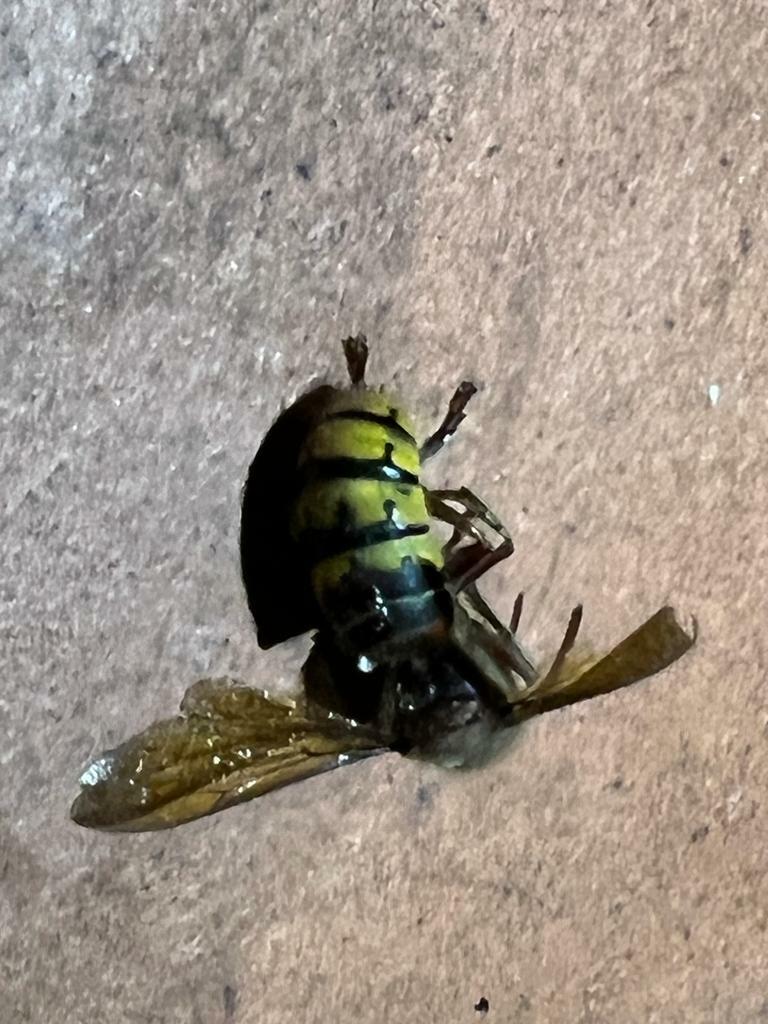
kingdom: Animalia
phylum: Arthropoda
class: Insecta
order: Hymenoptera
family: Vespidae
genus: Vespa
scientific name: Vespa crabro
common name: Hornet
